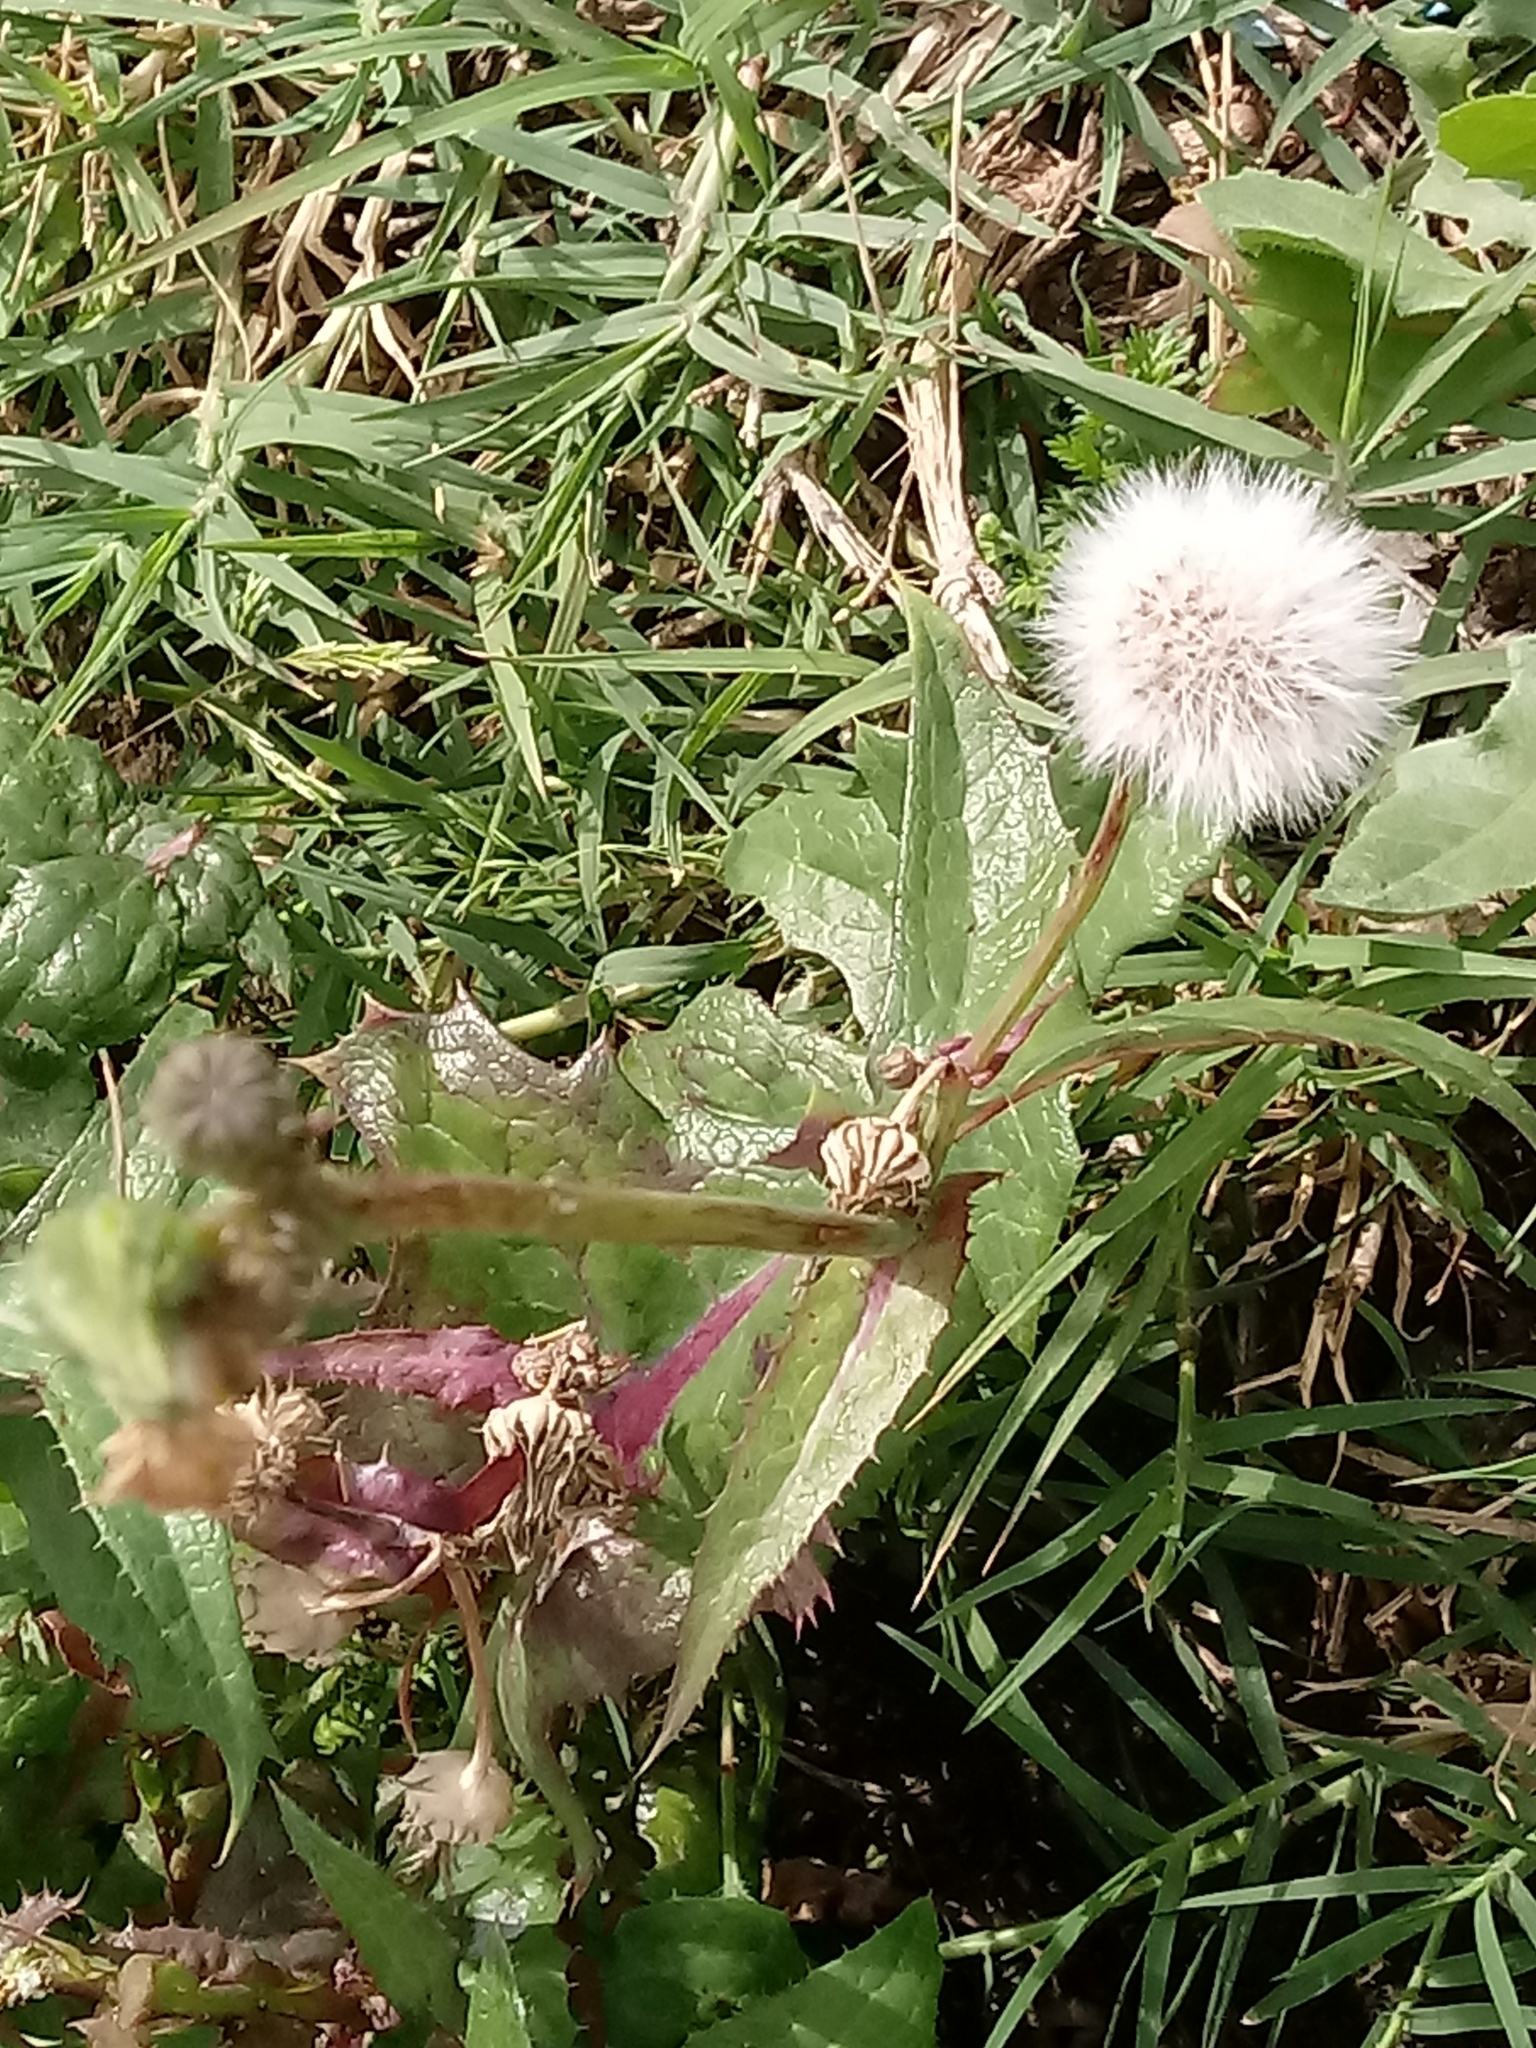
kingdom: Plantae
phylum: Tracheophyta
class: Magnoliopsida
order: Asterales
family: Asteraceae
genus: Sonchus
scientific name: Sonchus oleraceus
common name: Common sowthistle
